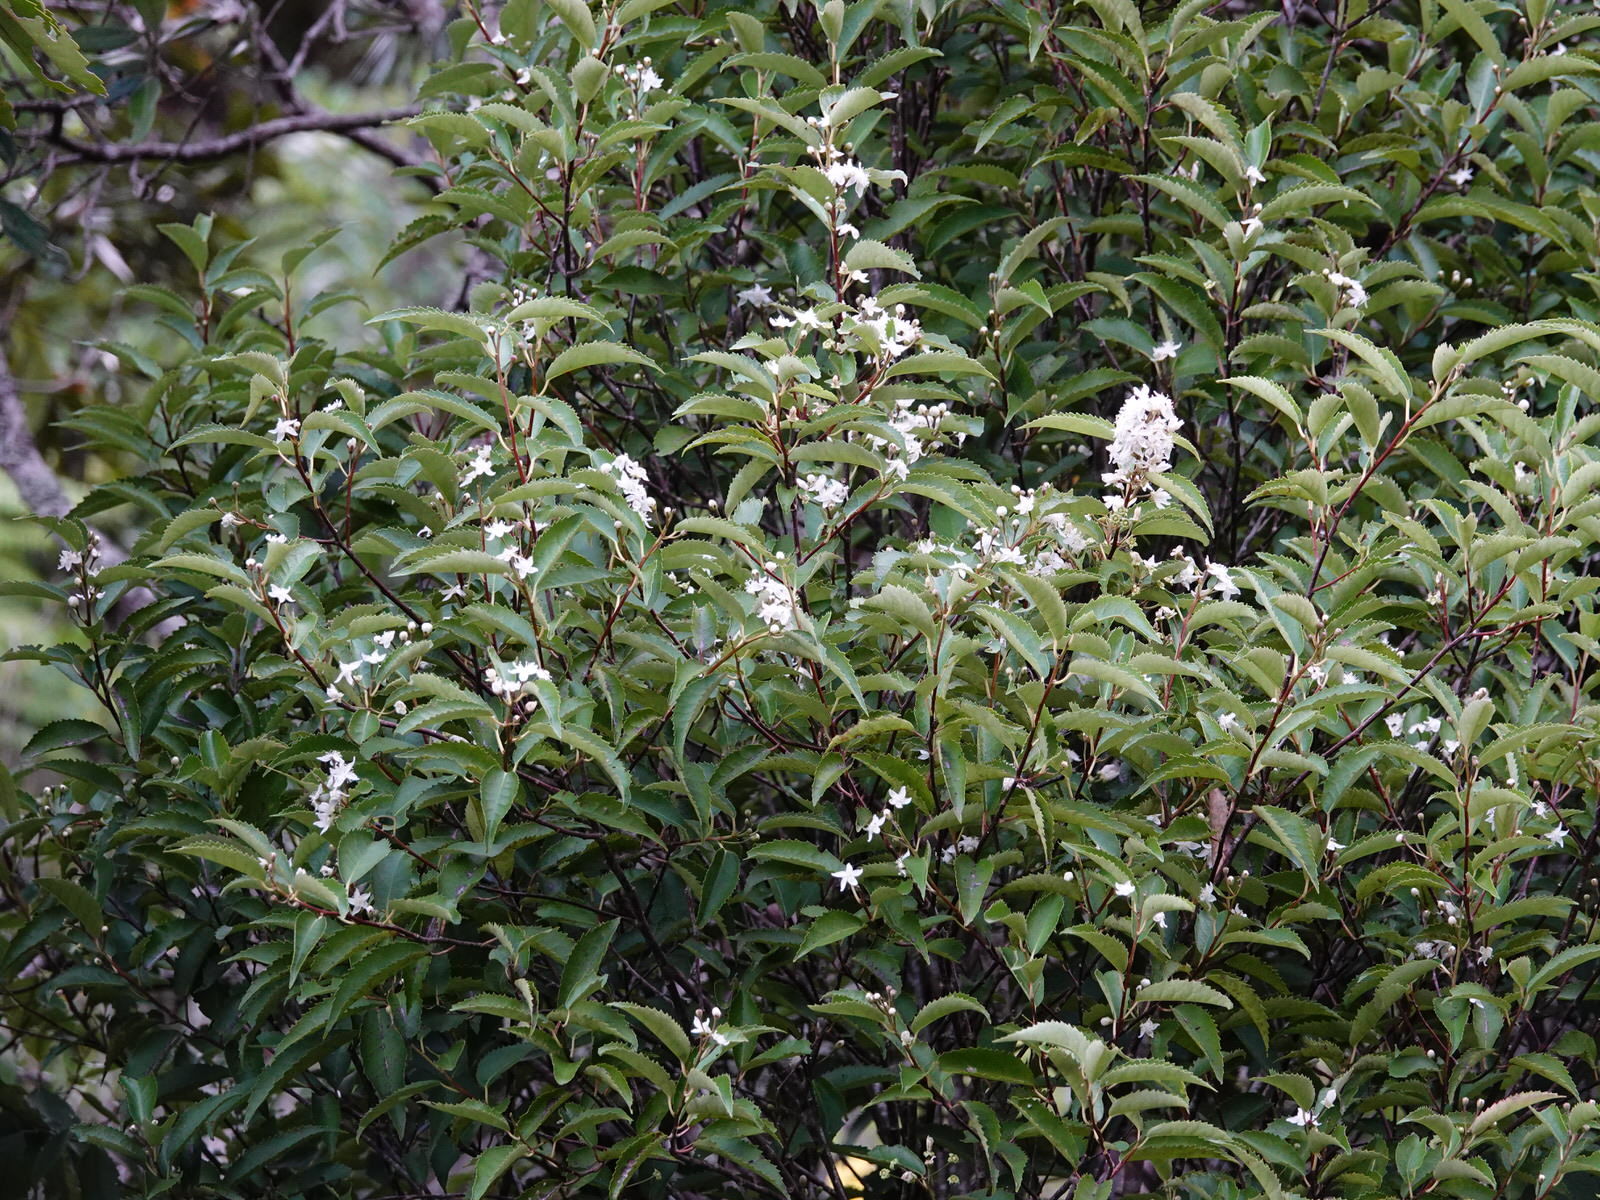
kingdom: Plantae
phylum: Tracheophyta
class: Magnoliopsida
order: Malvales
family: Malvaceae
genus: Hoheria
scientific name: Hoheria populnea
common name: Lacebark
